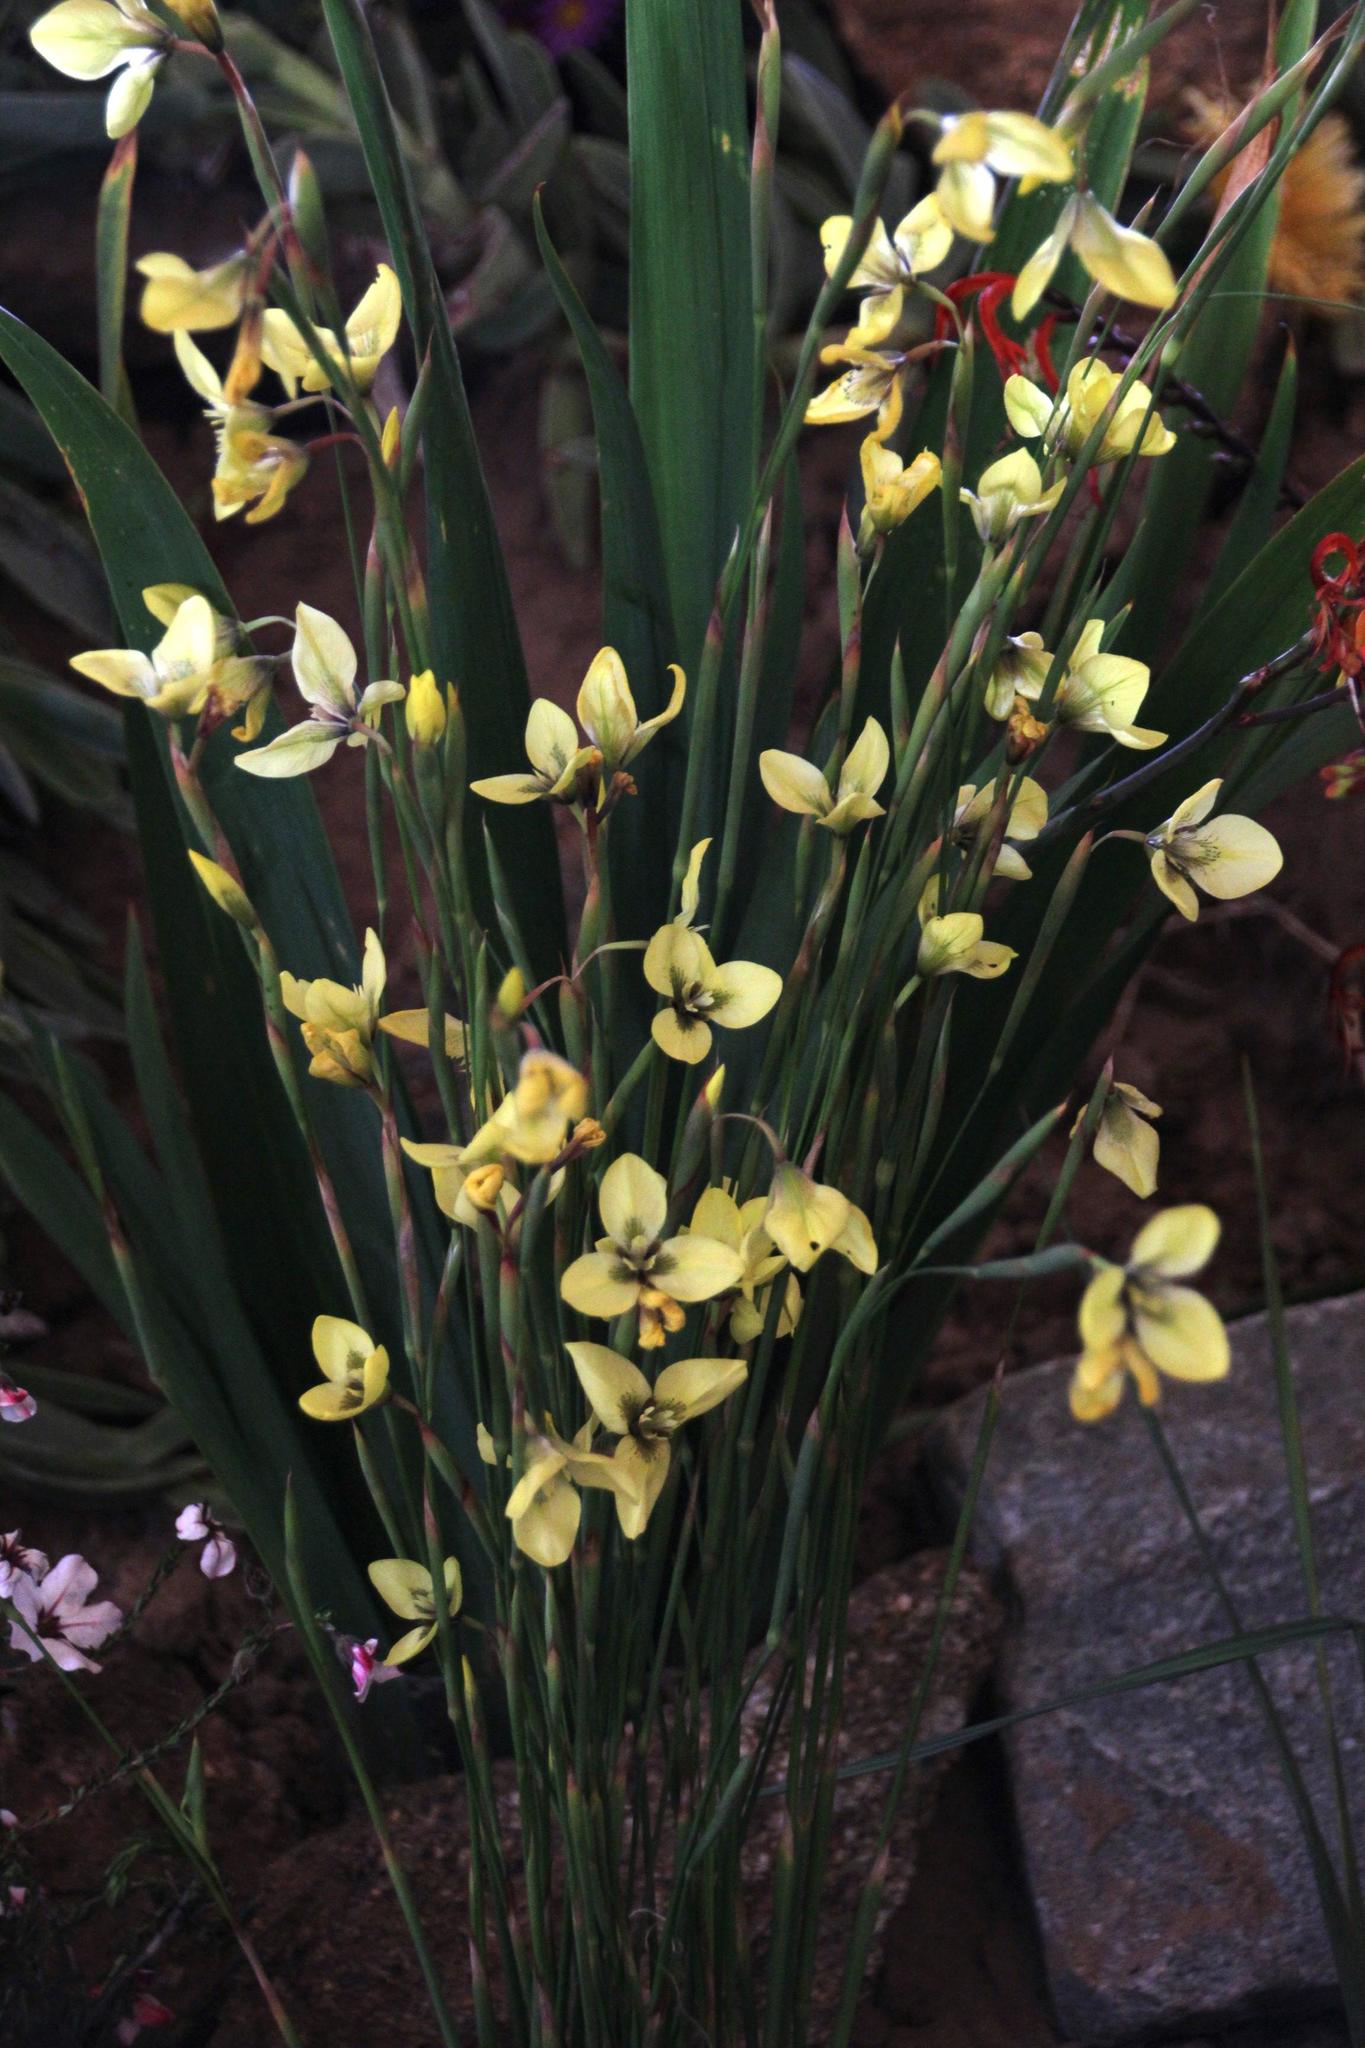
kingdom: Plantae
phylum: Tracheophyta
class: Liliopsida
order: Asparagales
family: Iridaceae
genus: Moraea
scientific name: Moraea bellendenii
